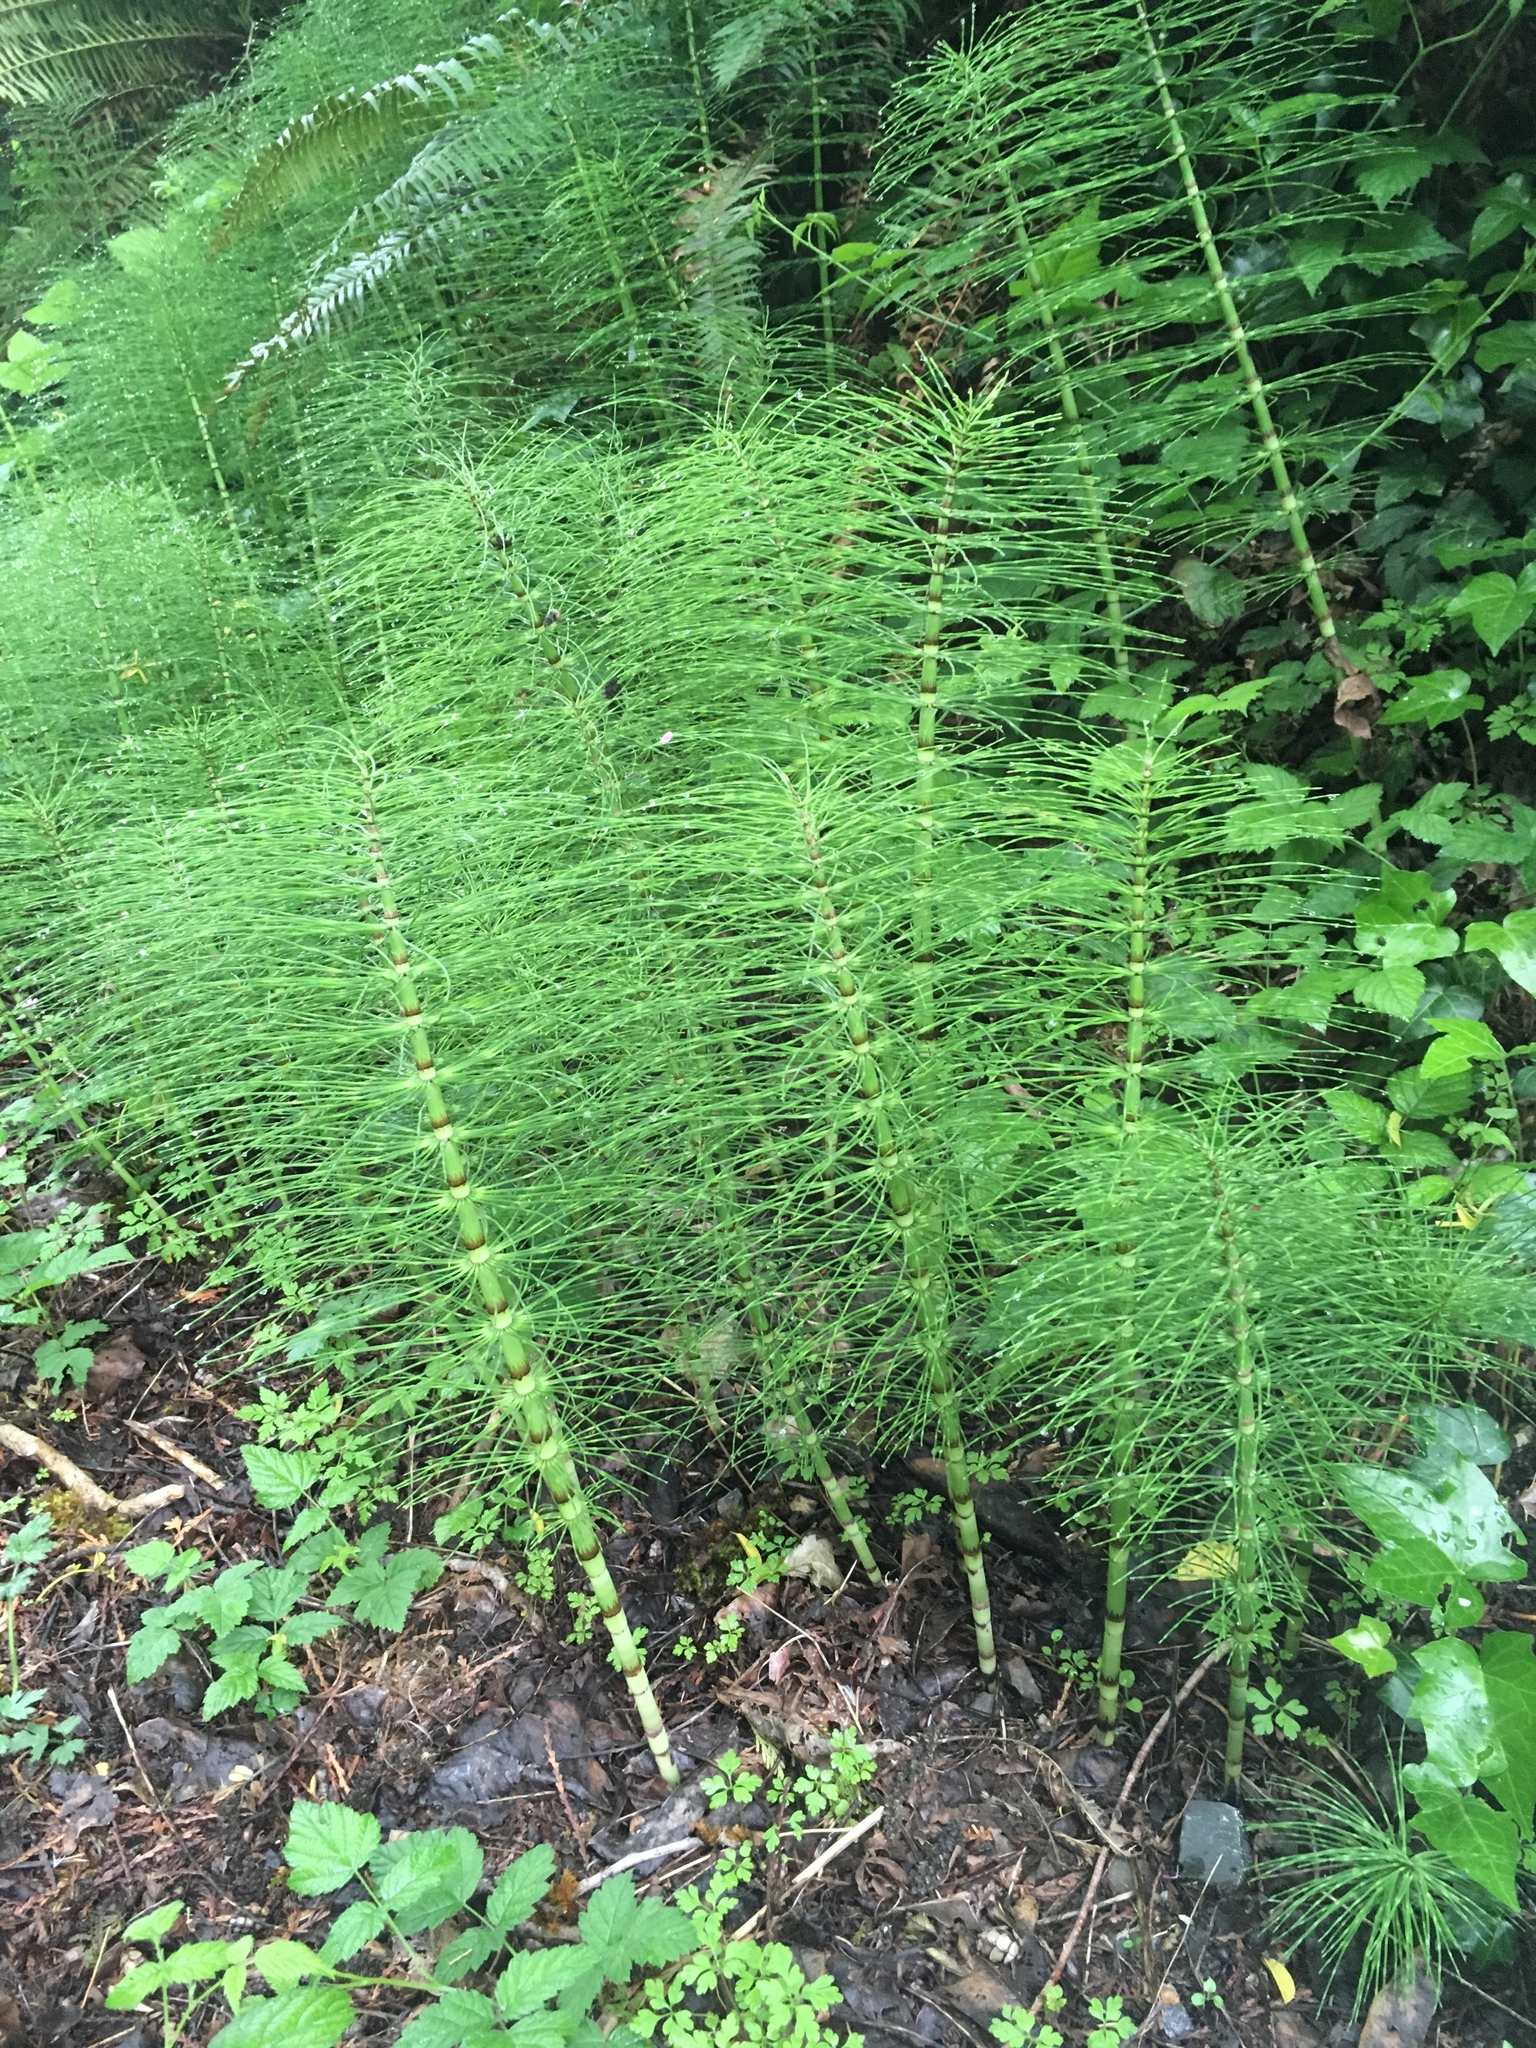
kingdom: Plantae
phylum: Tracheophyta
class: Polypodiopsida
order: Equisetales
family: Equisetaceae
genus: Equisetum
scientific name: Equisetum braunii
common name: Braun's horsetail
